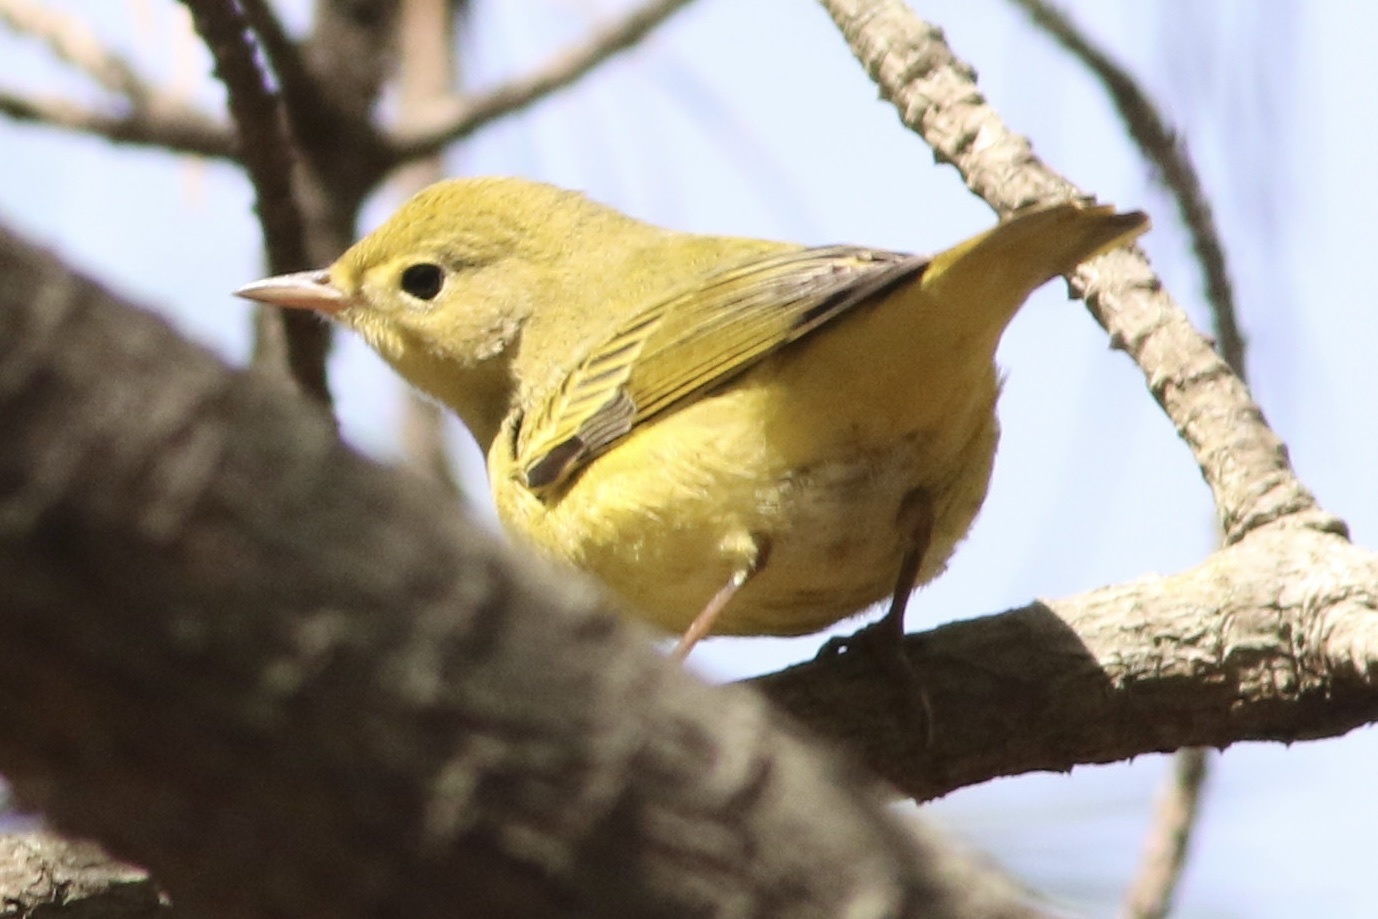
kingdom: Animalia
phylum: Chordata
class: Aves
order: Passeriformes
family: Parulidae
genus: Setophaga
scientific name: Setophaga petechia
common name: Yellow warbler
